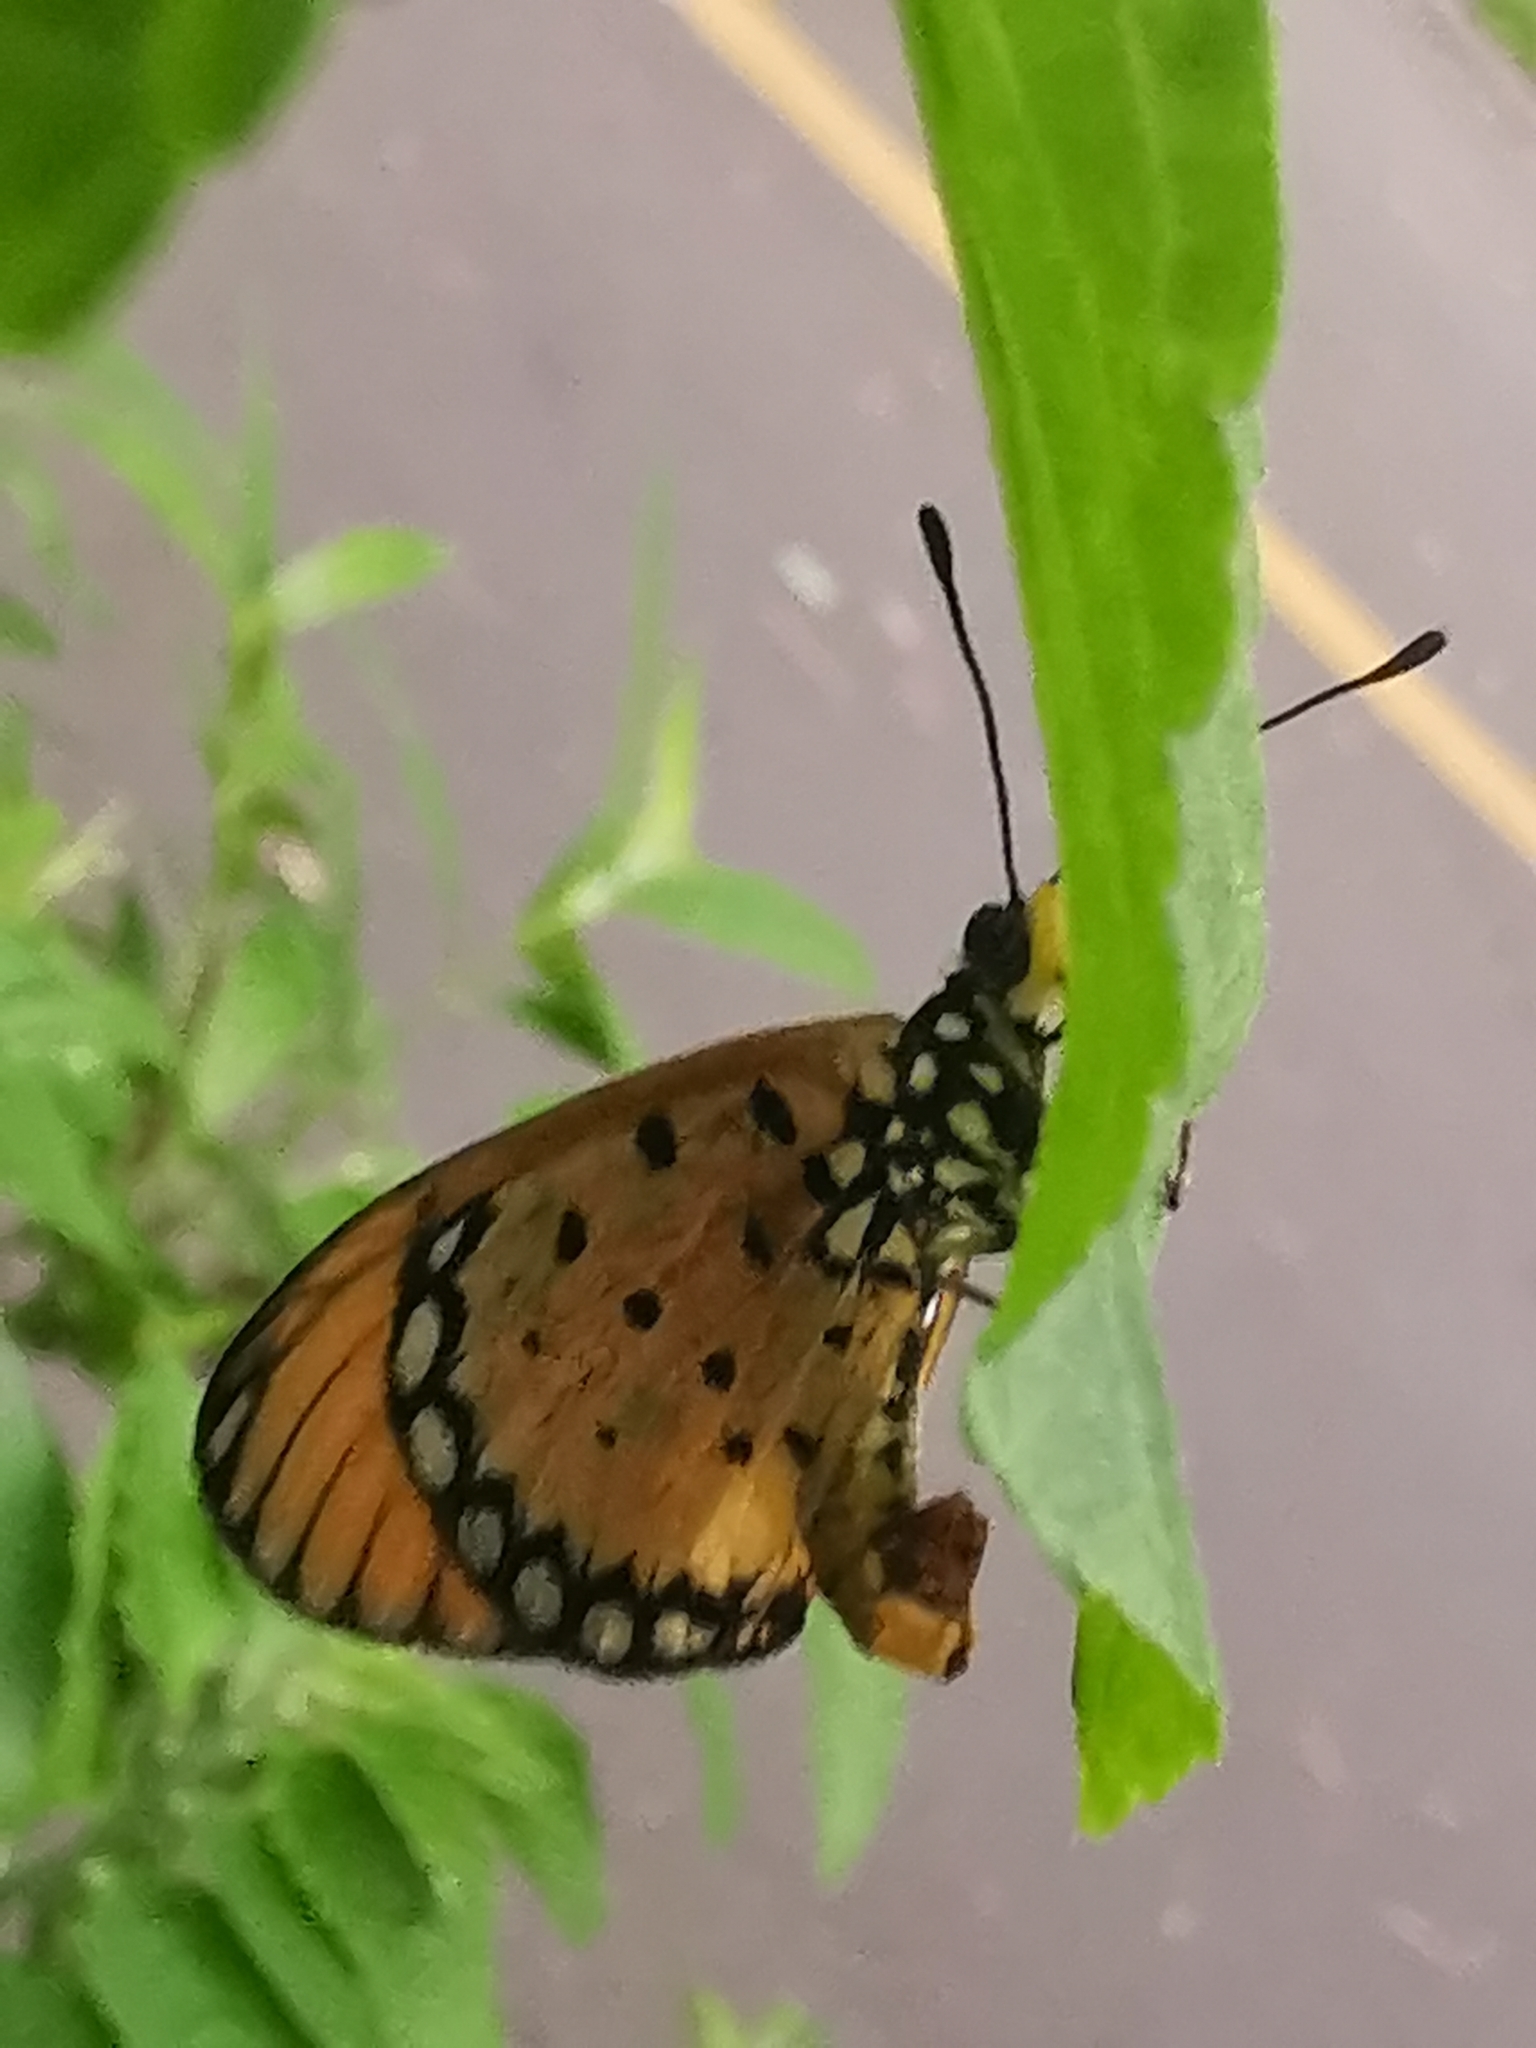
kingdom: Animalia
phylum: Arthropoda
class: Insecta
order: Lepidoptera
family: Nymphalidae
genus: Acraea
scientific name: Acraea terpsicore
